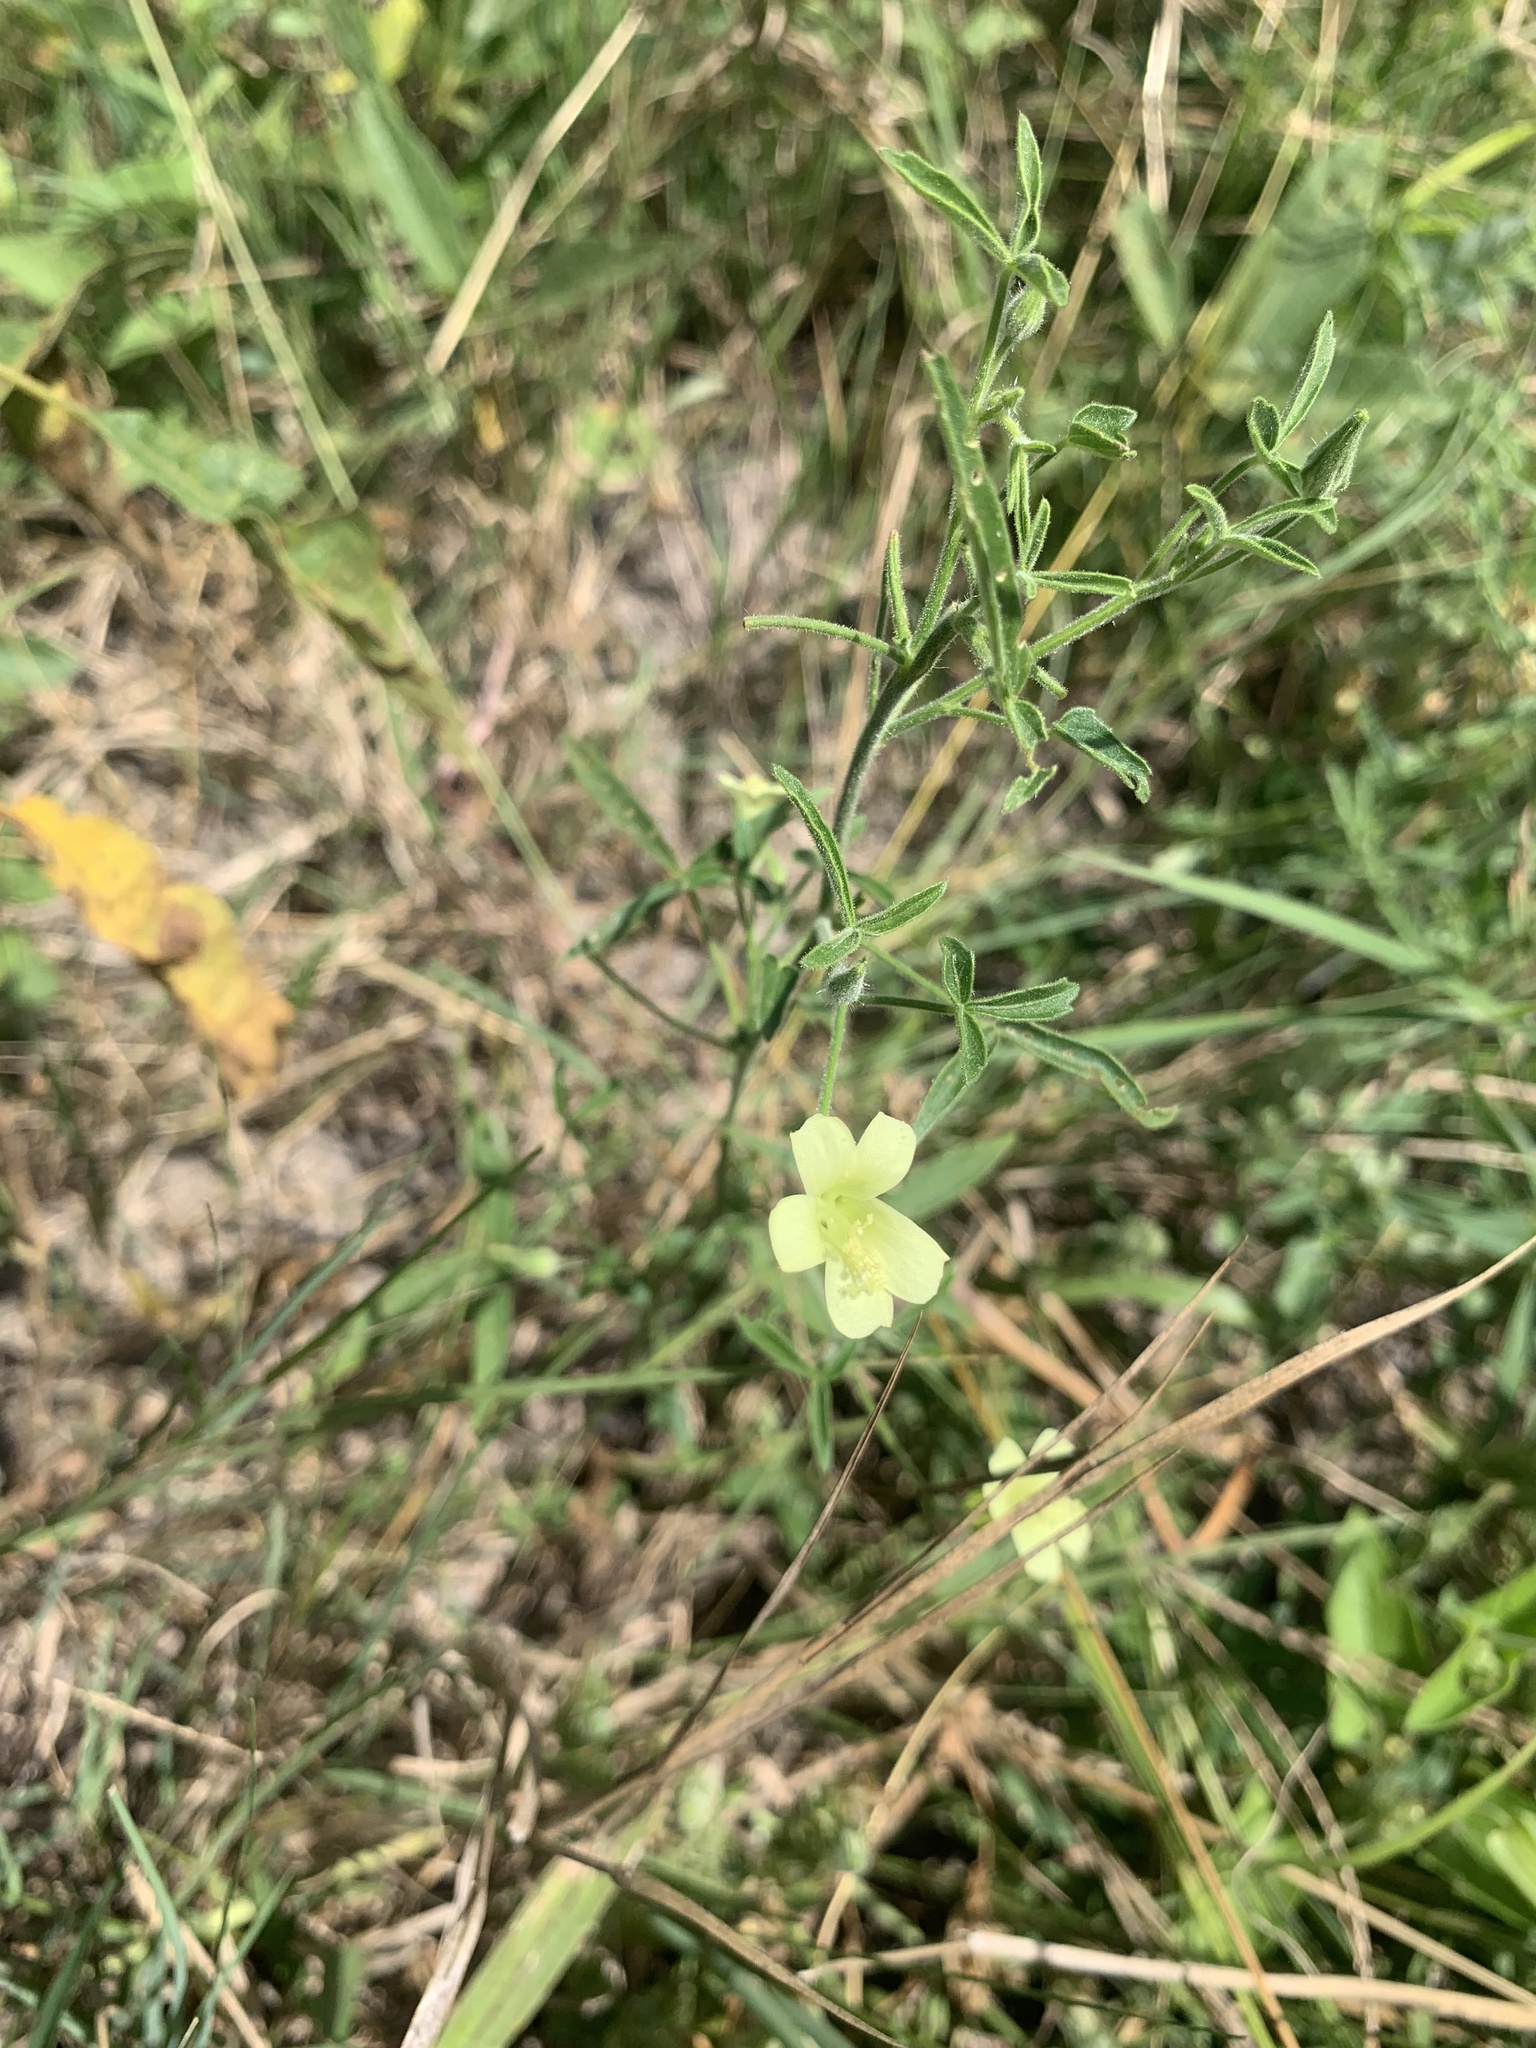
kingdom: Plantae
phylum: Tracheophyta
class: Magnoliopsida
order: Malvales
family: Malvaceae
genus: Hibiscus
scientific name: Hibiscus sidiformis
